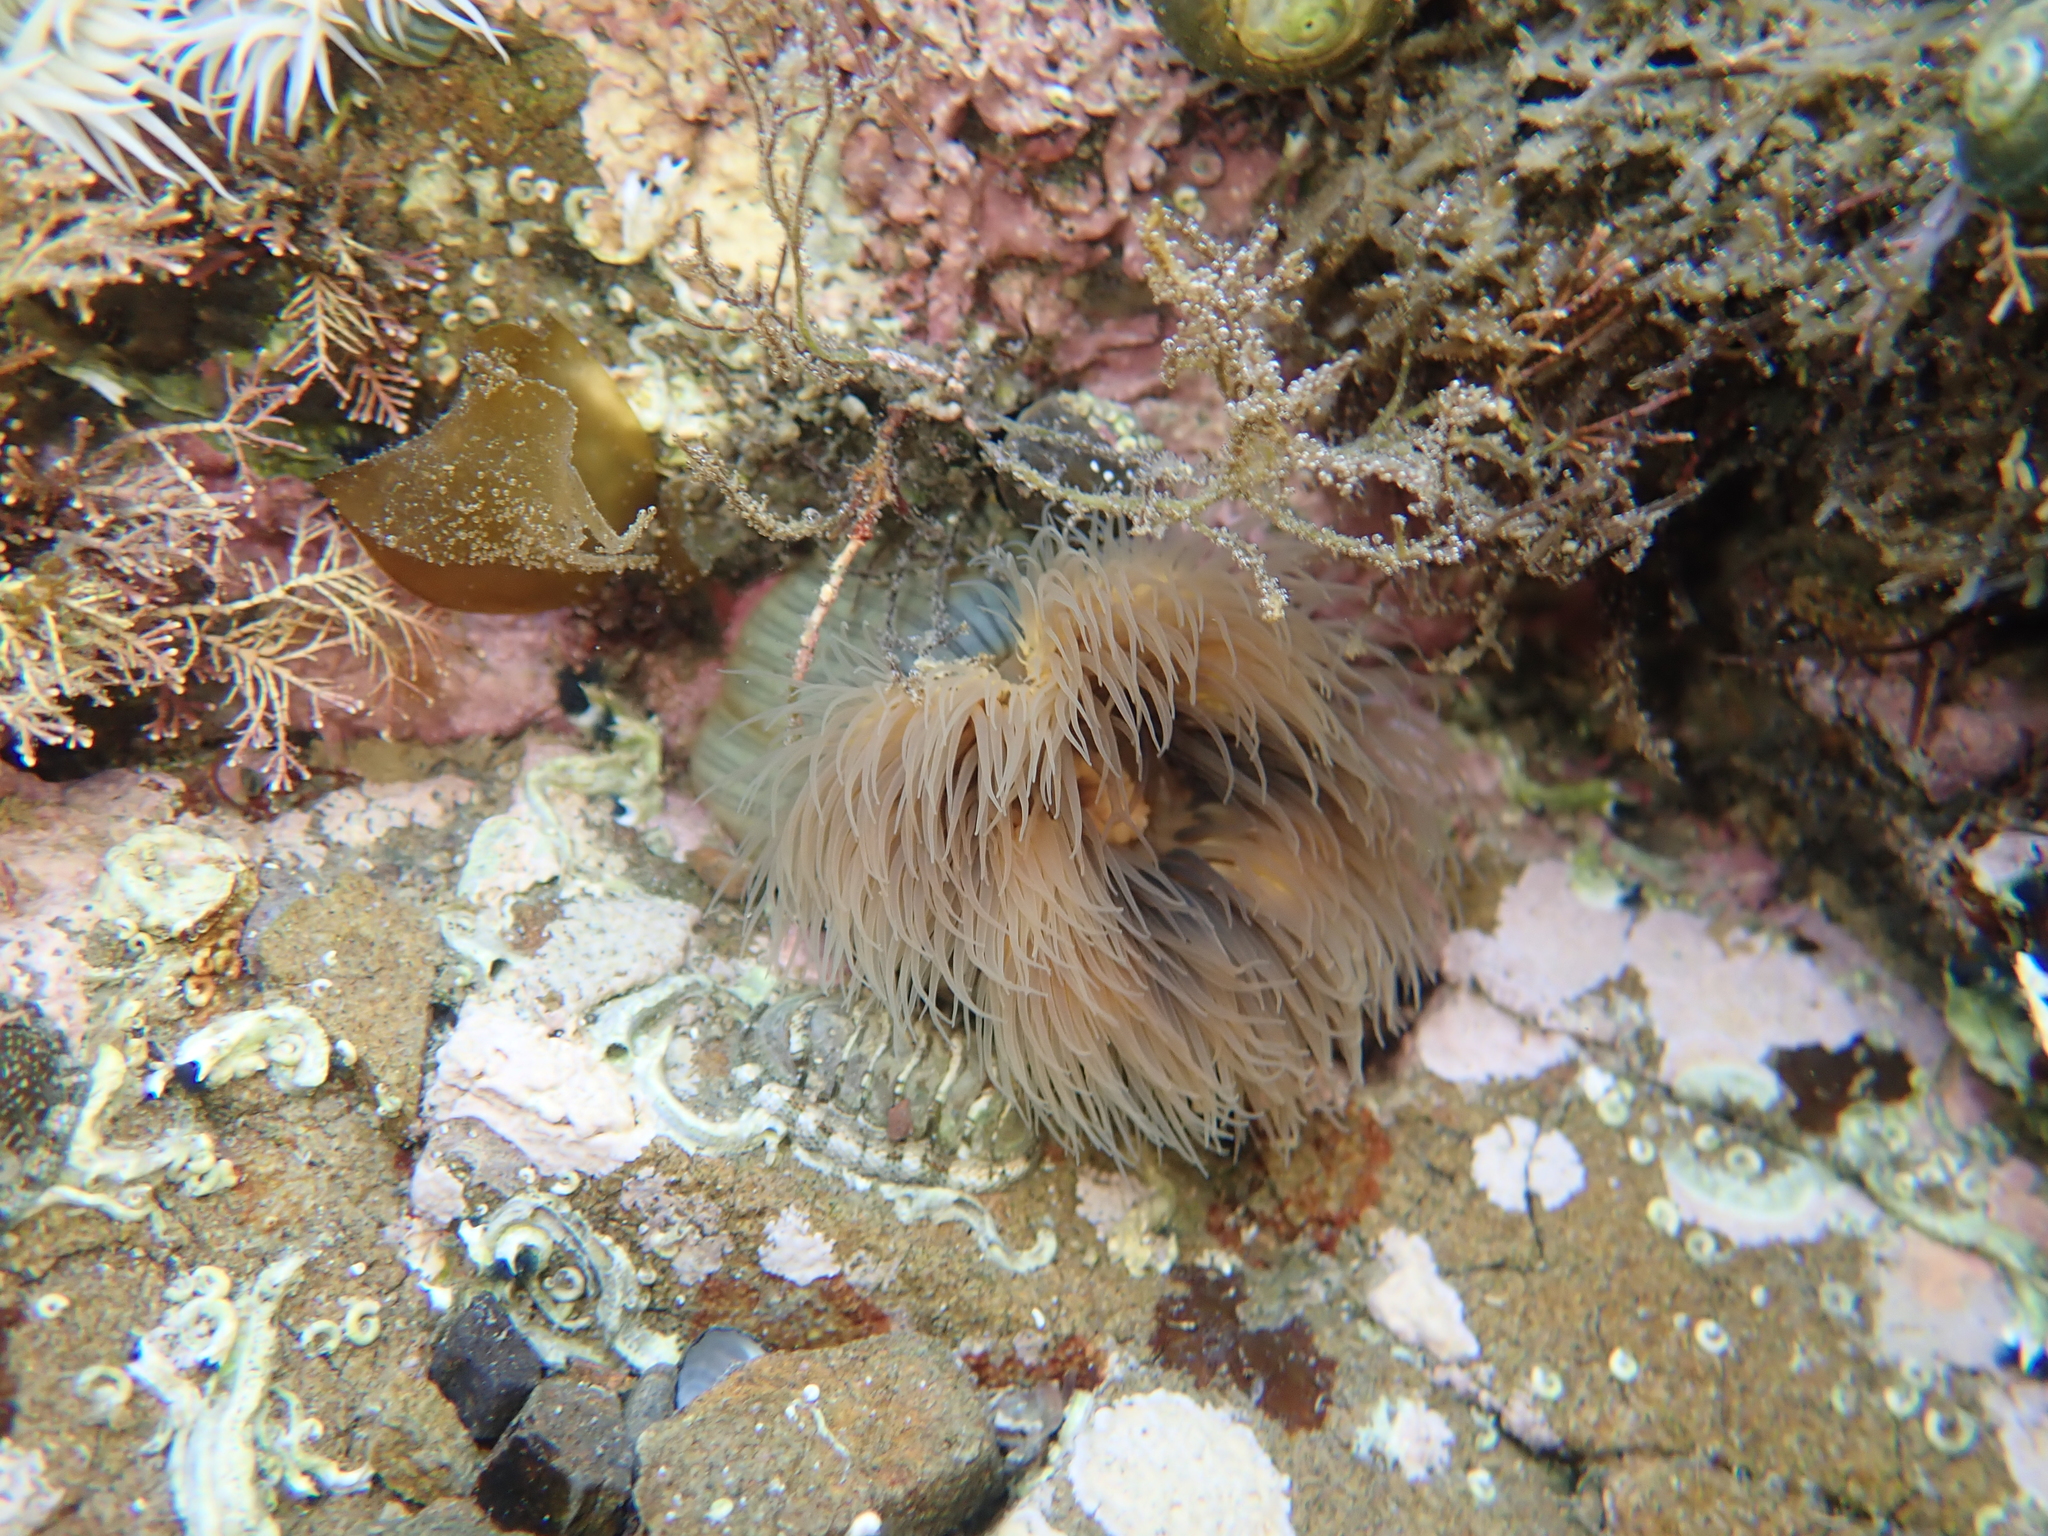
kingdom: Animalia
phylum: Cnidaria
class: Anthozoa
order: Actiniaria
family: Diadumenidae
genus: Diadumene
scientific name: Diadumene neozelanica
